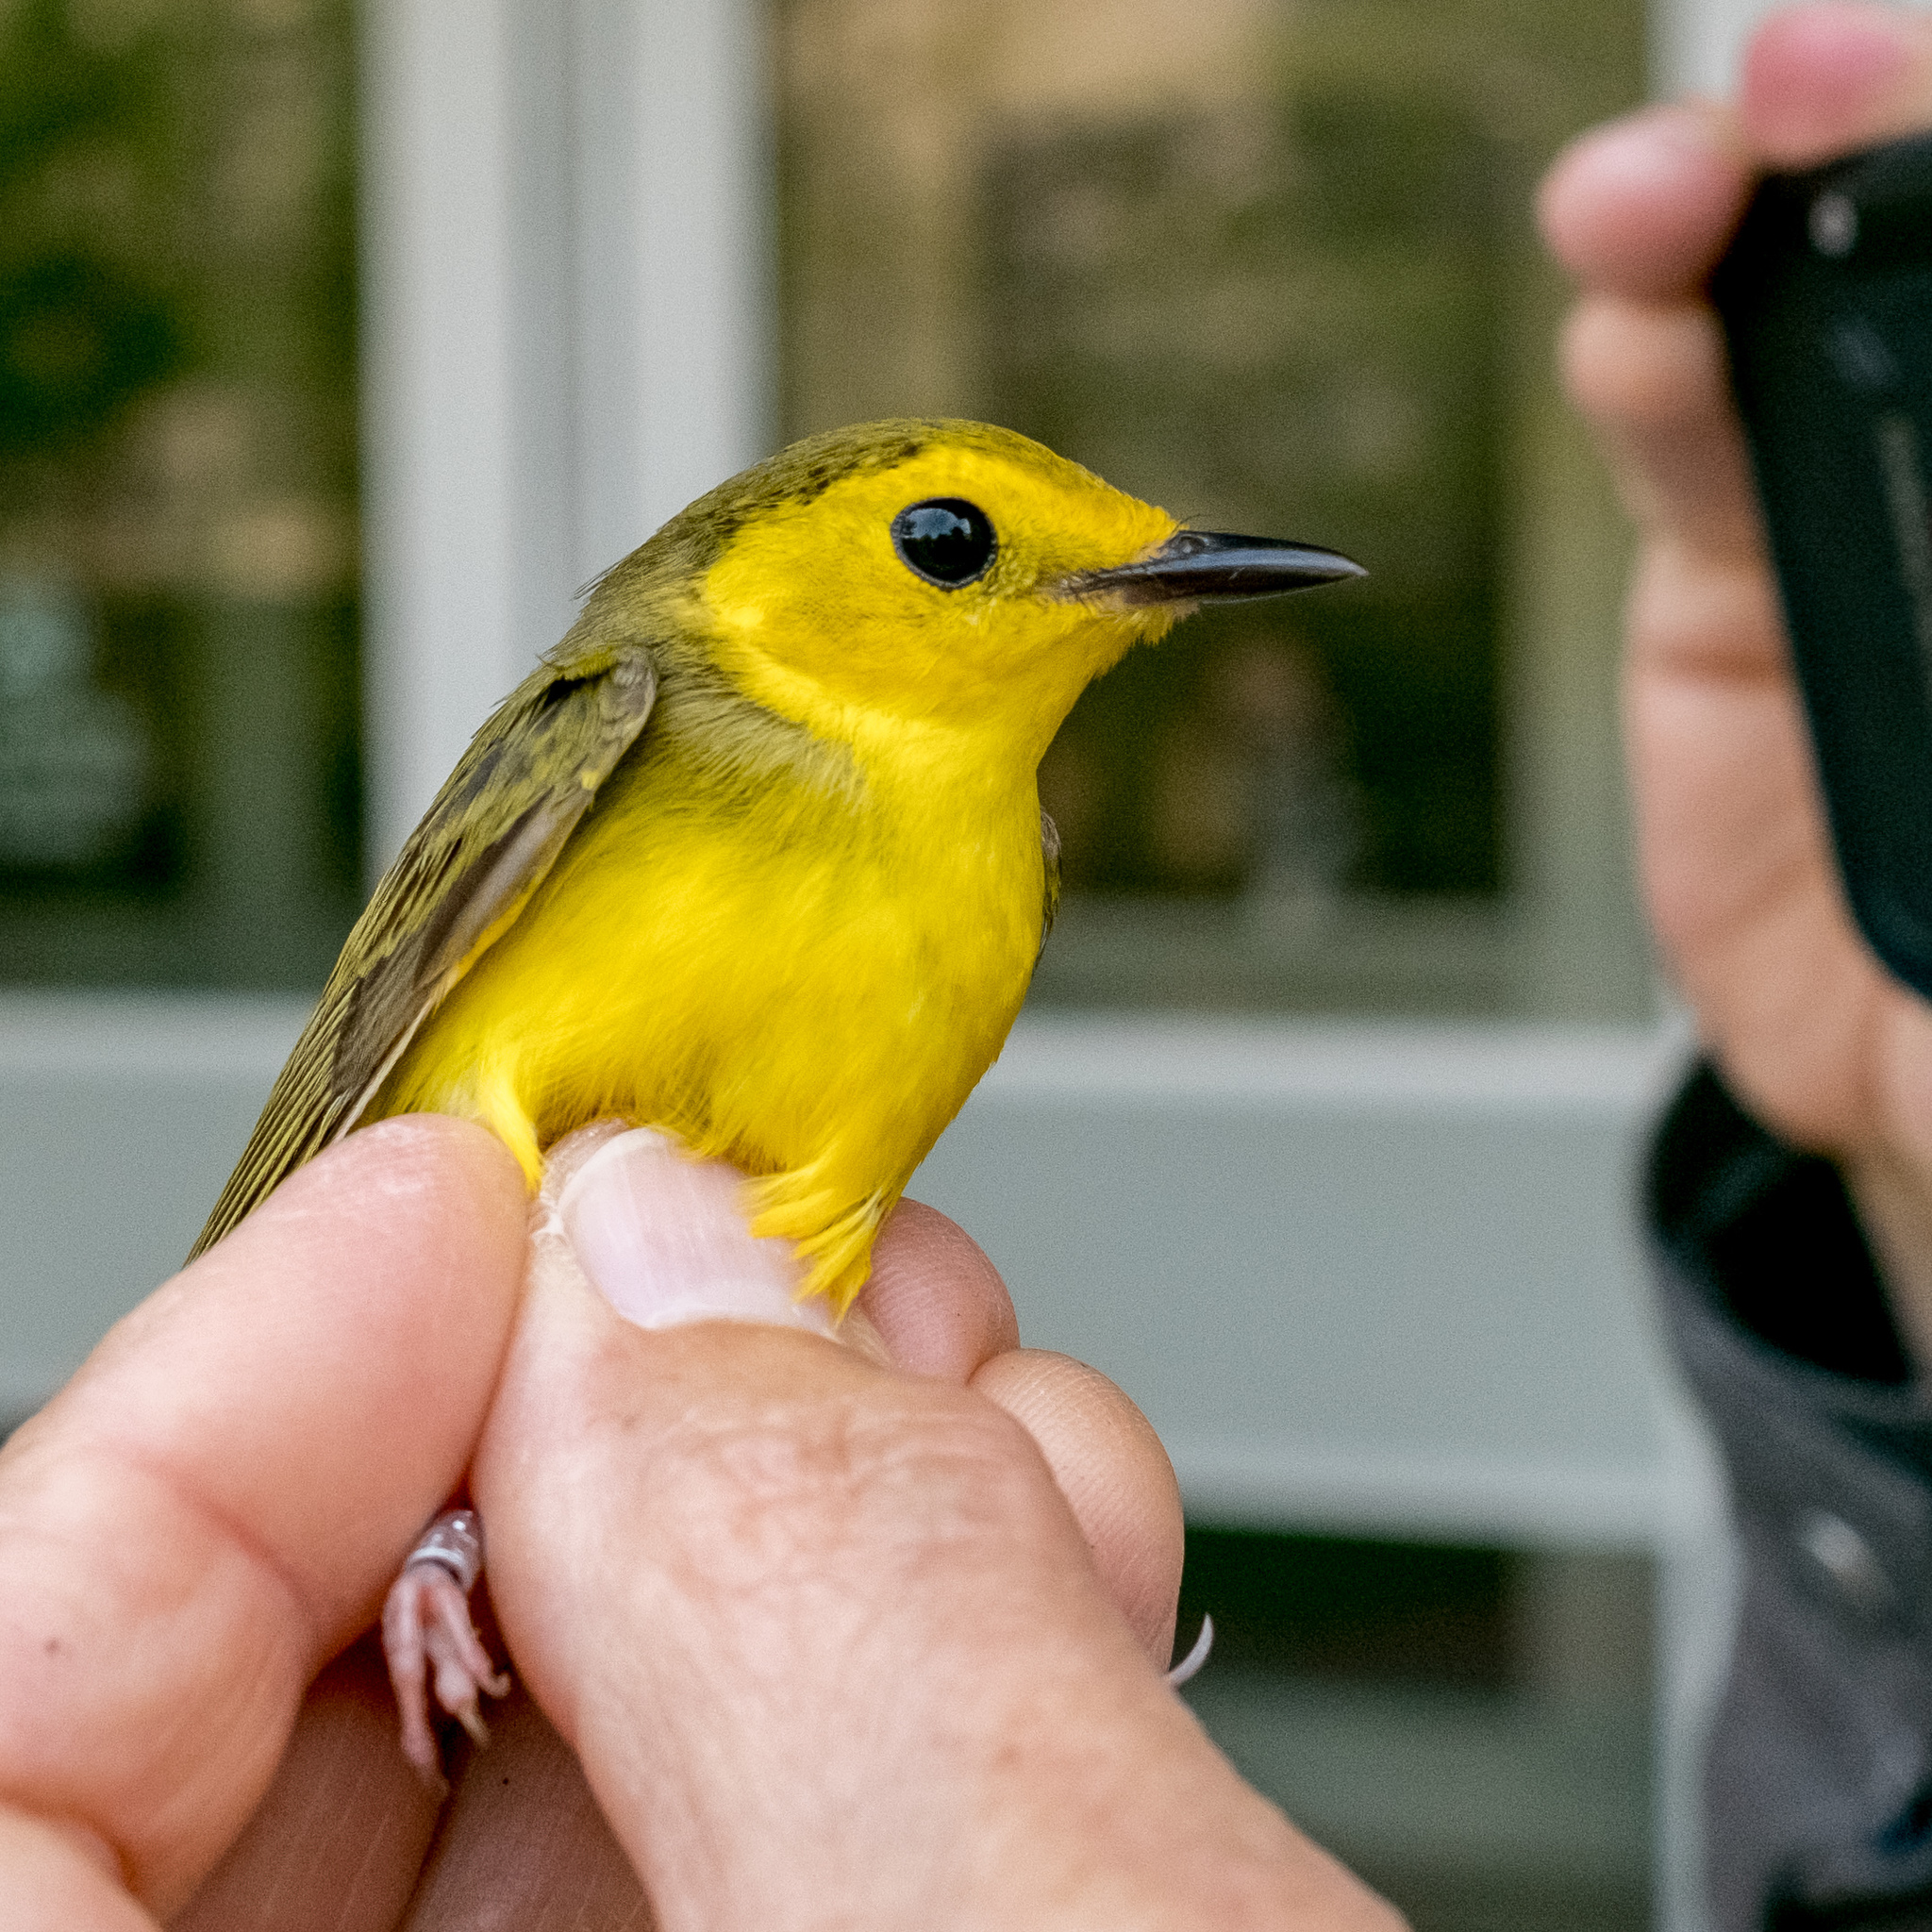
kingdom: Animalia
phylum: Chordata
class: Aves
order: Passeriformes
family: Parulidae
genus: Setophaga
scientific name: Setophaga citrina
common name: Hooded warbler
